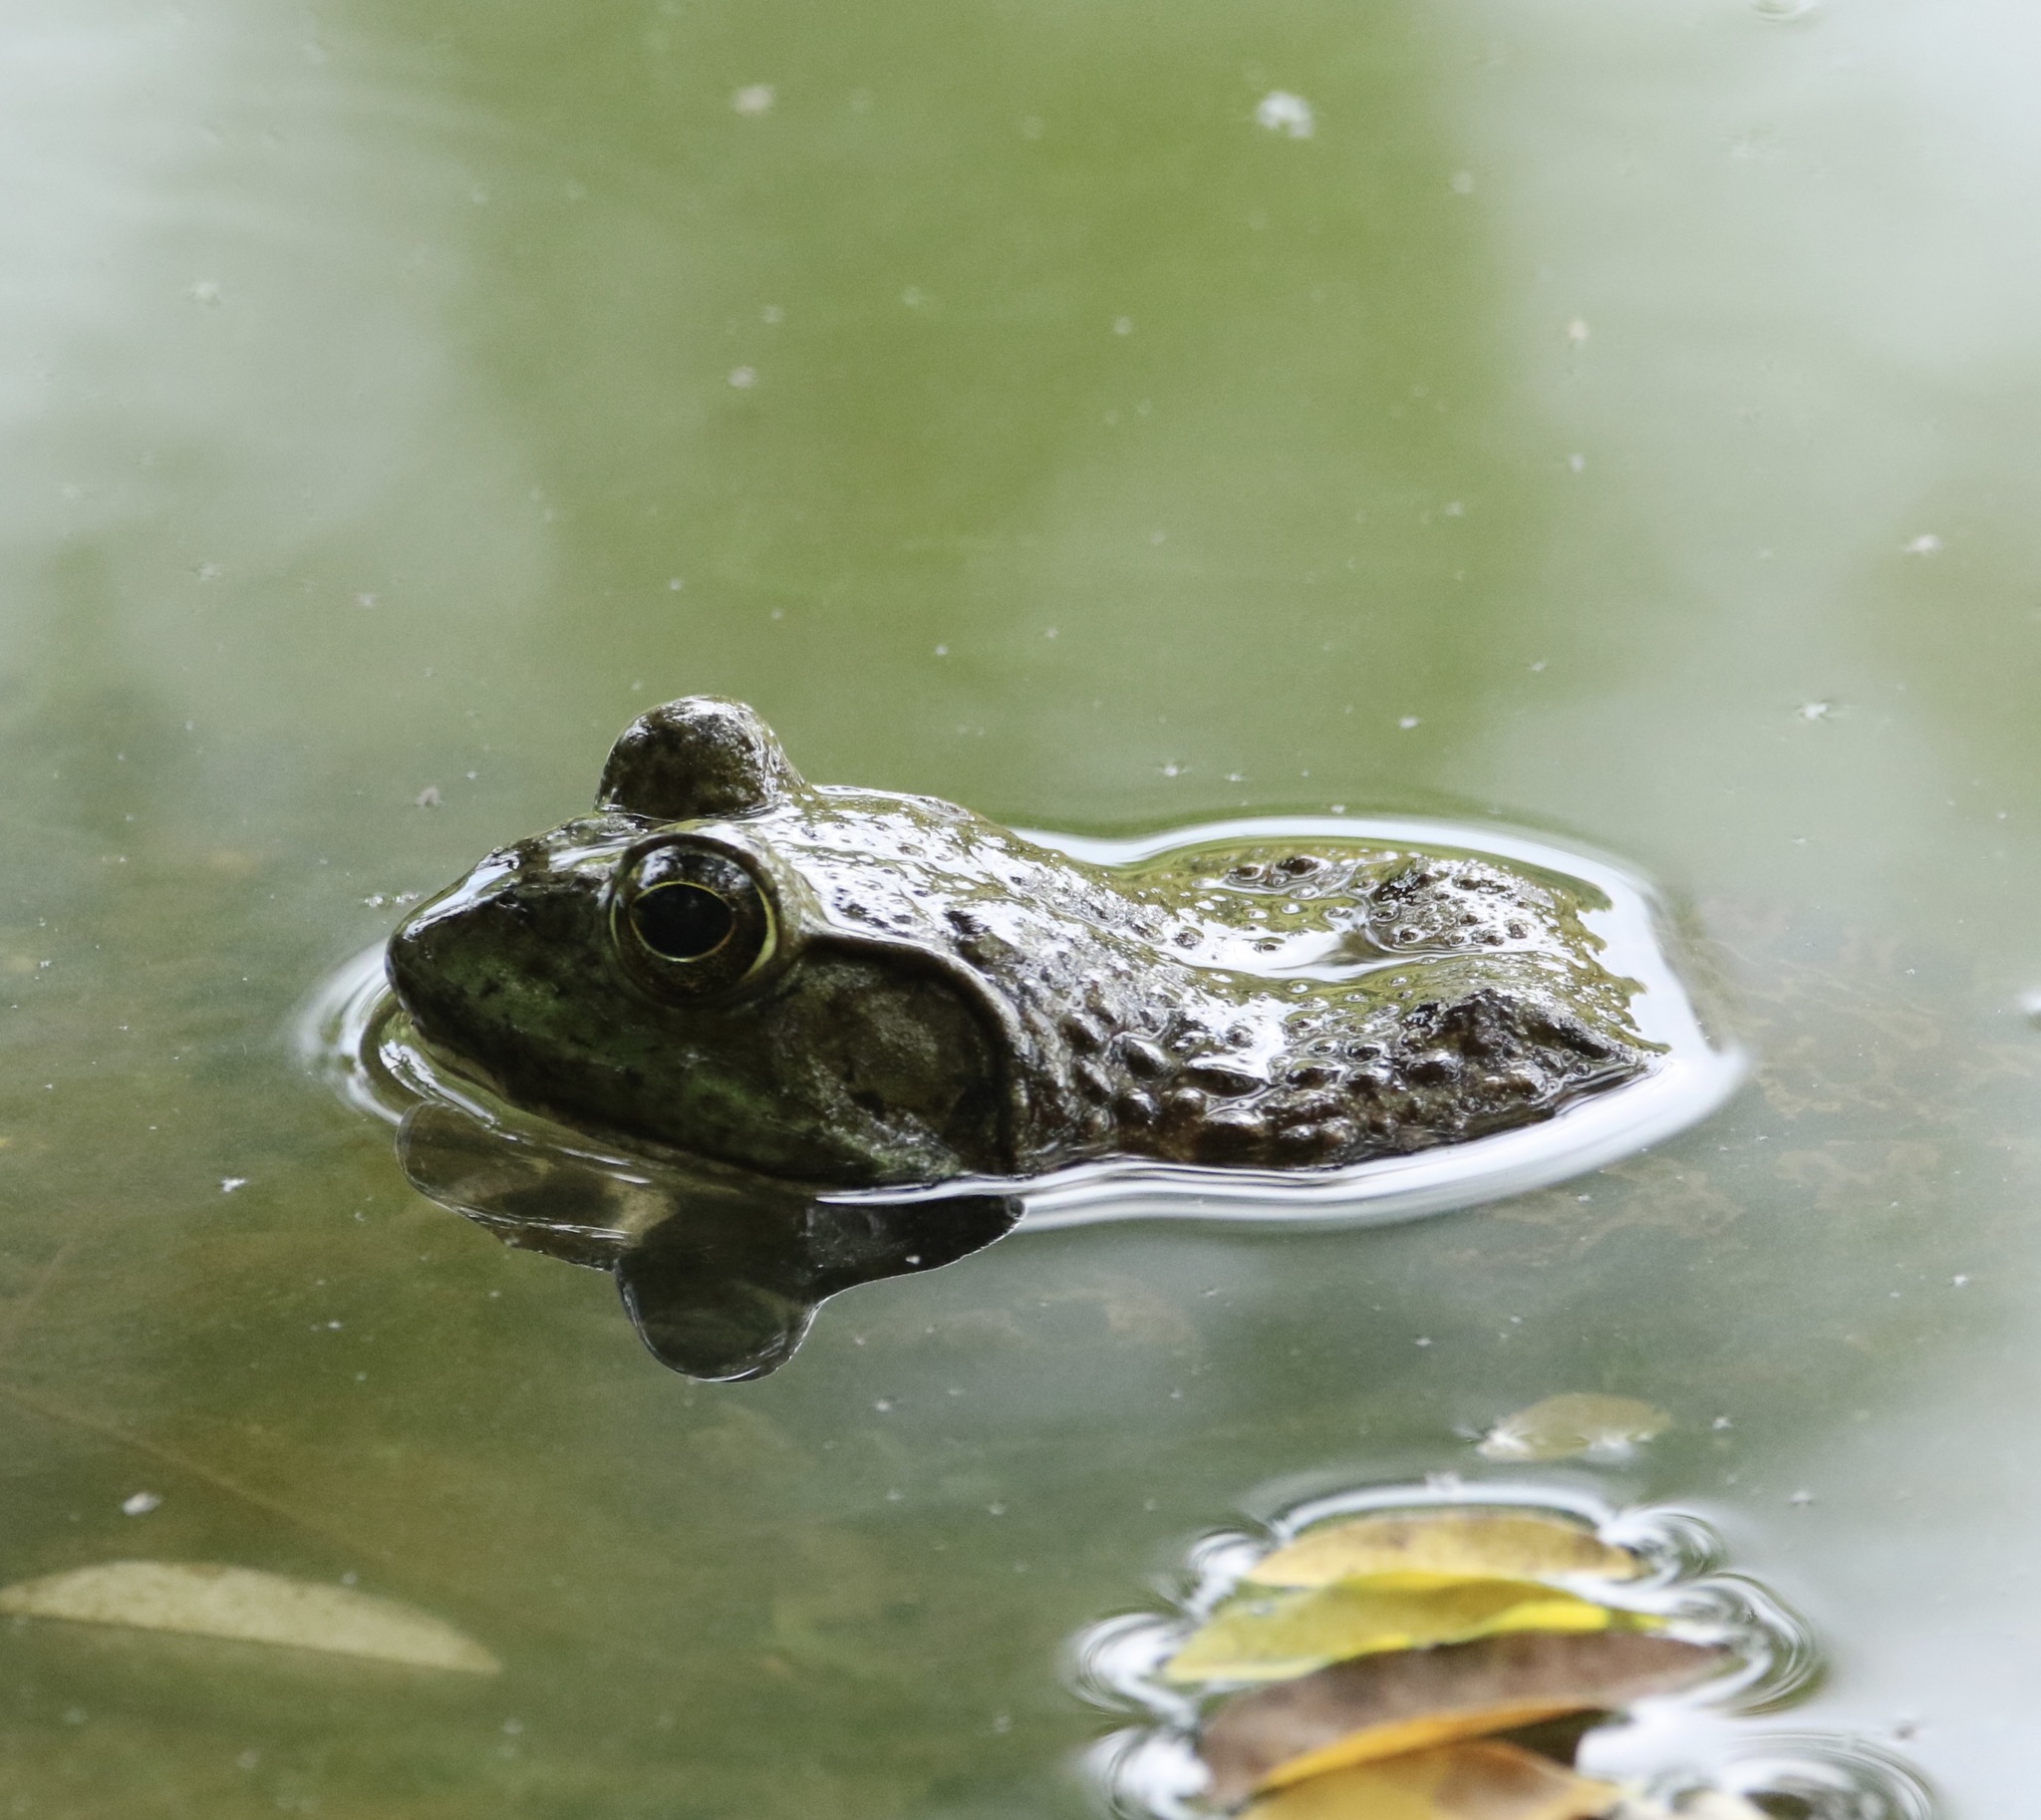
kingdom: Animalia
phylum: Chordata
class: Amphibia
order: Anura
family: Ranidae
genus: Lithobates
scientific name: Lithobates catesbeianus
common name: American bullfrog
